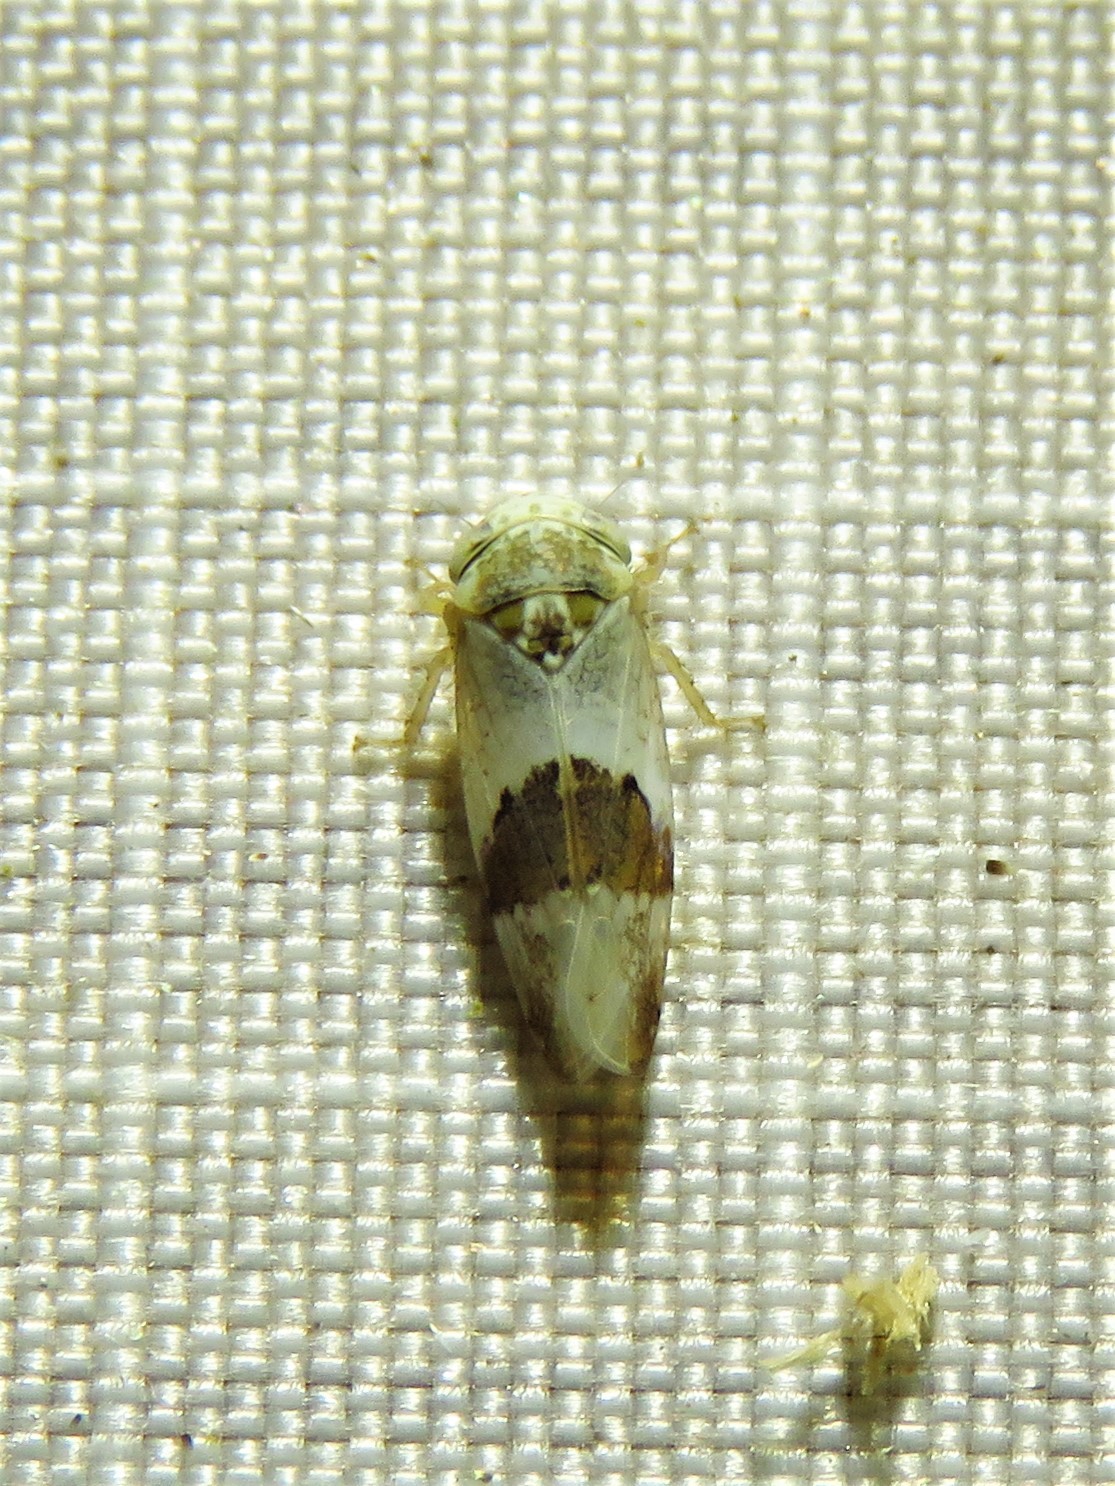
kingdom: Animalia
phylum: Arthropoda
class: Insecta
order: Hemiptera
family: Cicadellidae
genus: Norvellina
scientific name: Norvellina seminuda
